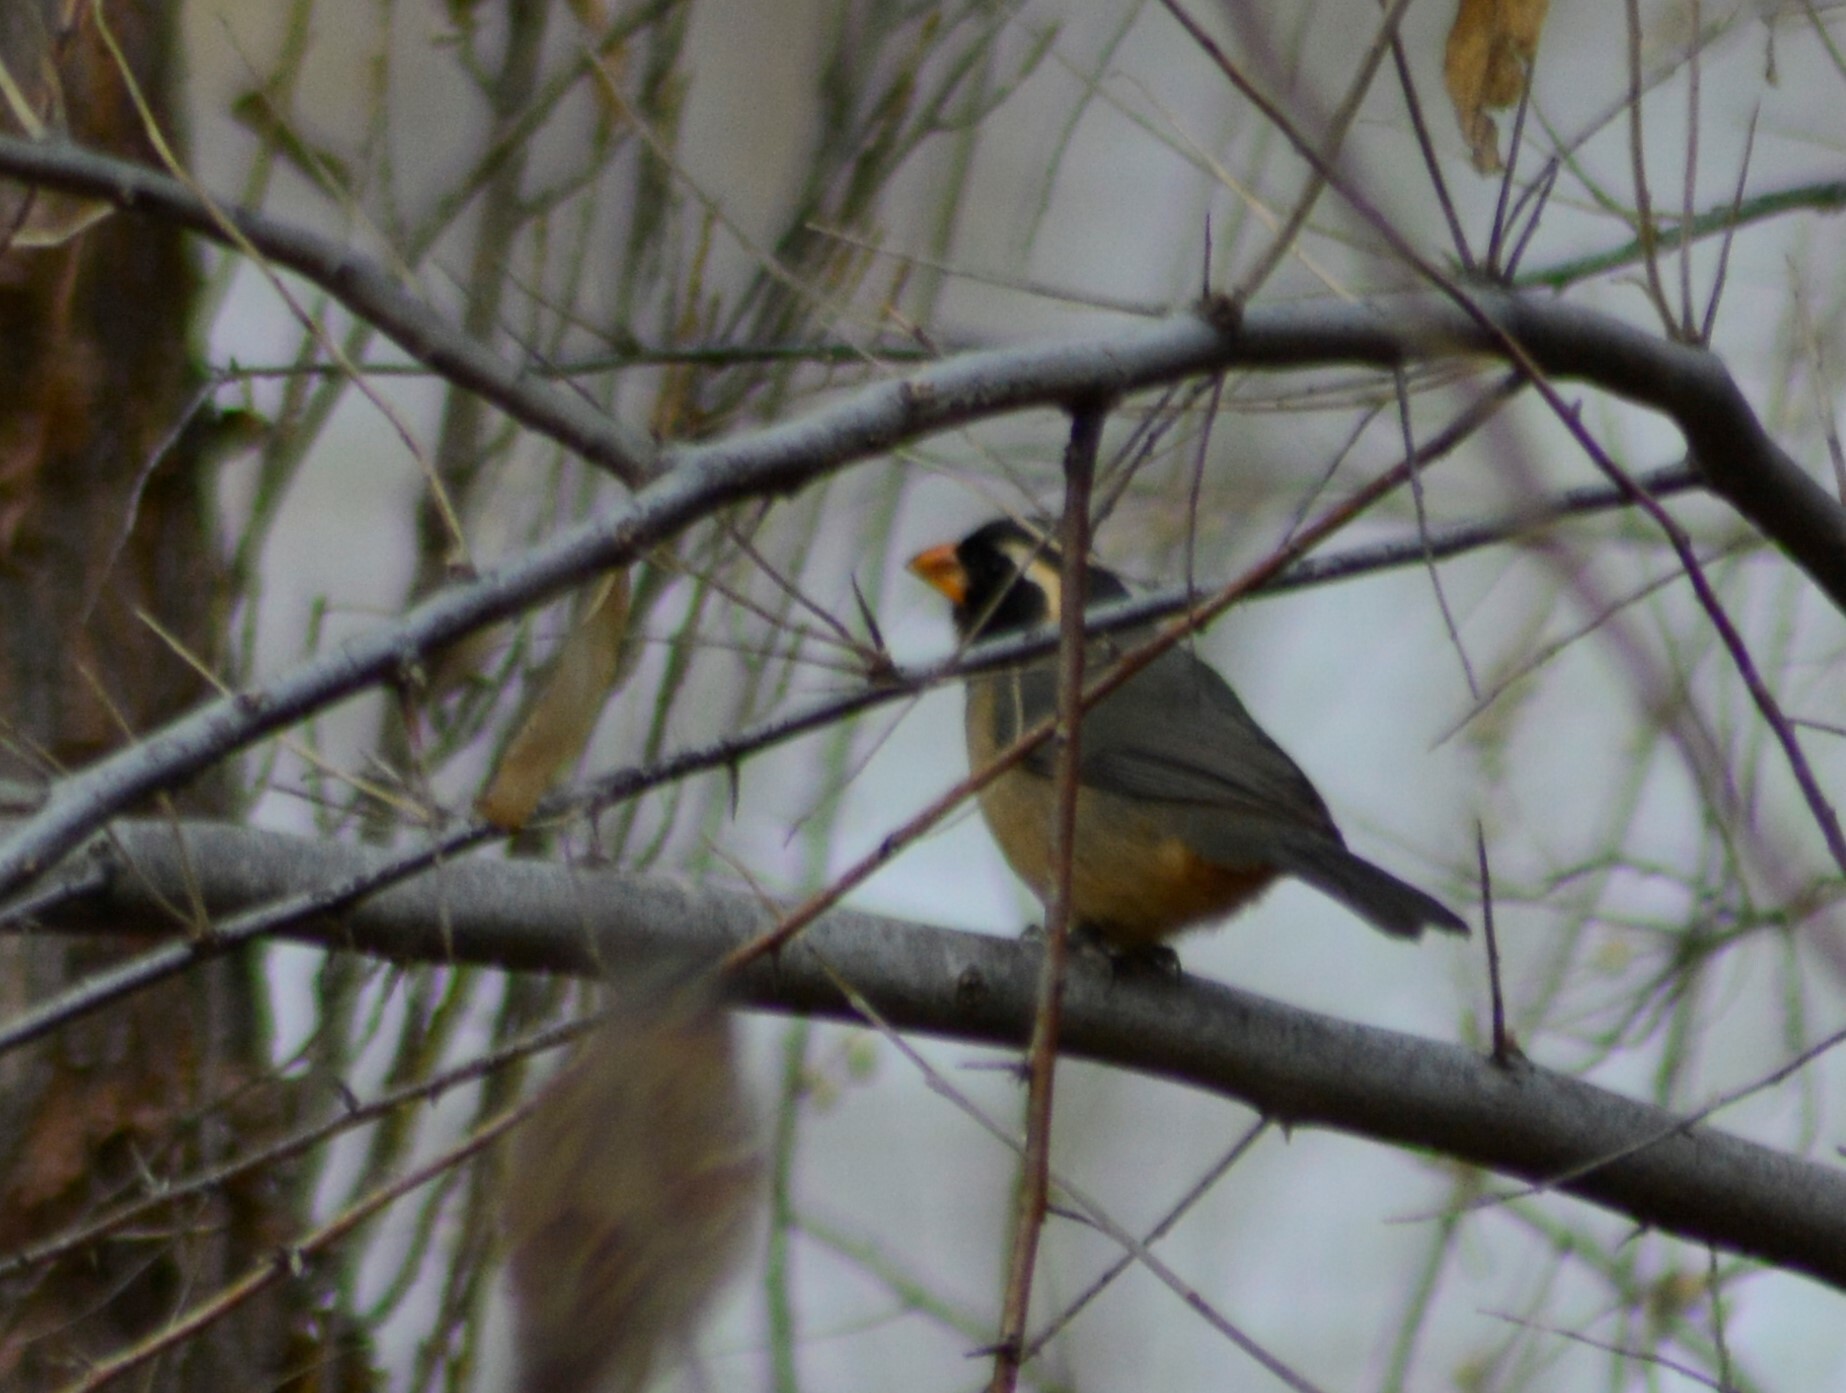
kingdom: Animalia
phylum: Chordata
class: Aves
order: Passeriformes
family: Thraupidae
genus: Saltator
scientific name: Saltator aurantiirostris
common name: Golden-billed saltator
